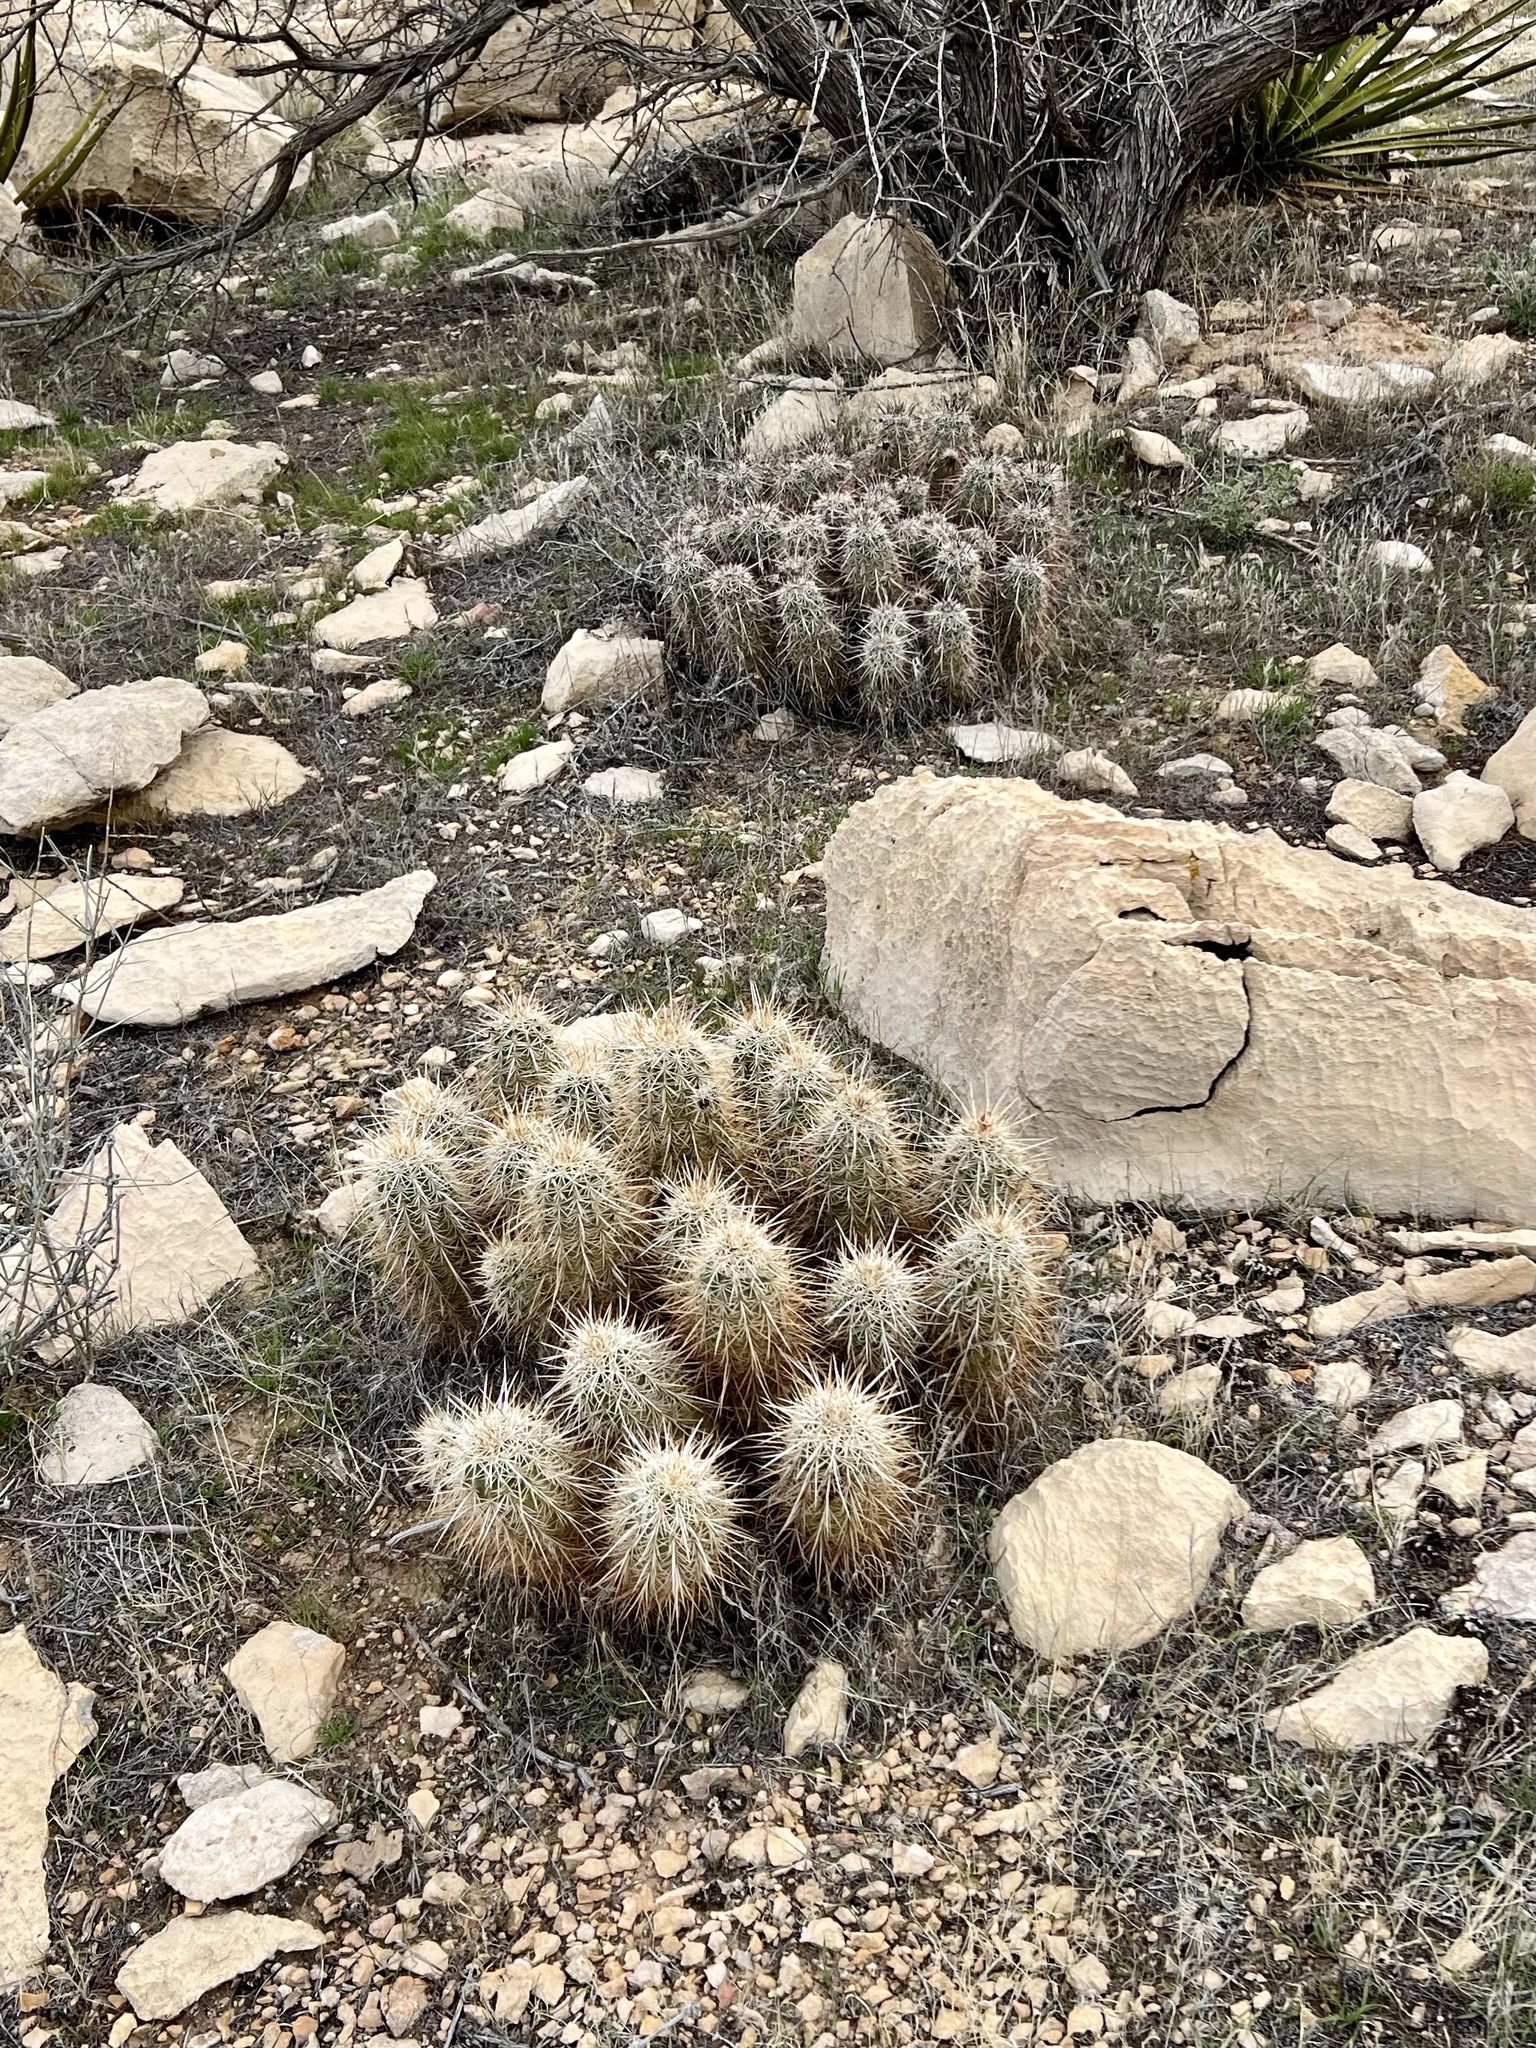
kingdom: Plantae
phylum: Tracheophyta
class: Magnoliopsida
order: Caryophyllales
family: Cactaceae
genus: Echinocereus
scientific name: Echinocereus engelmannii
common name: Engelmann's hedgehog cactus
